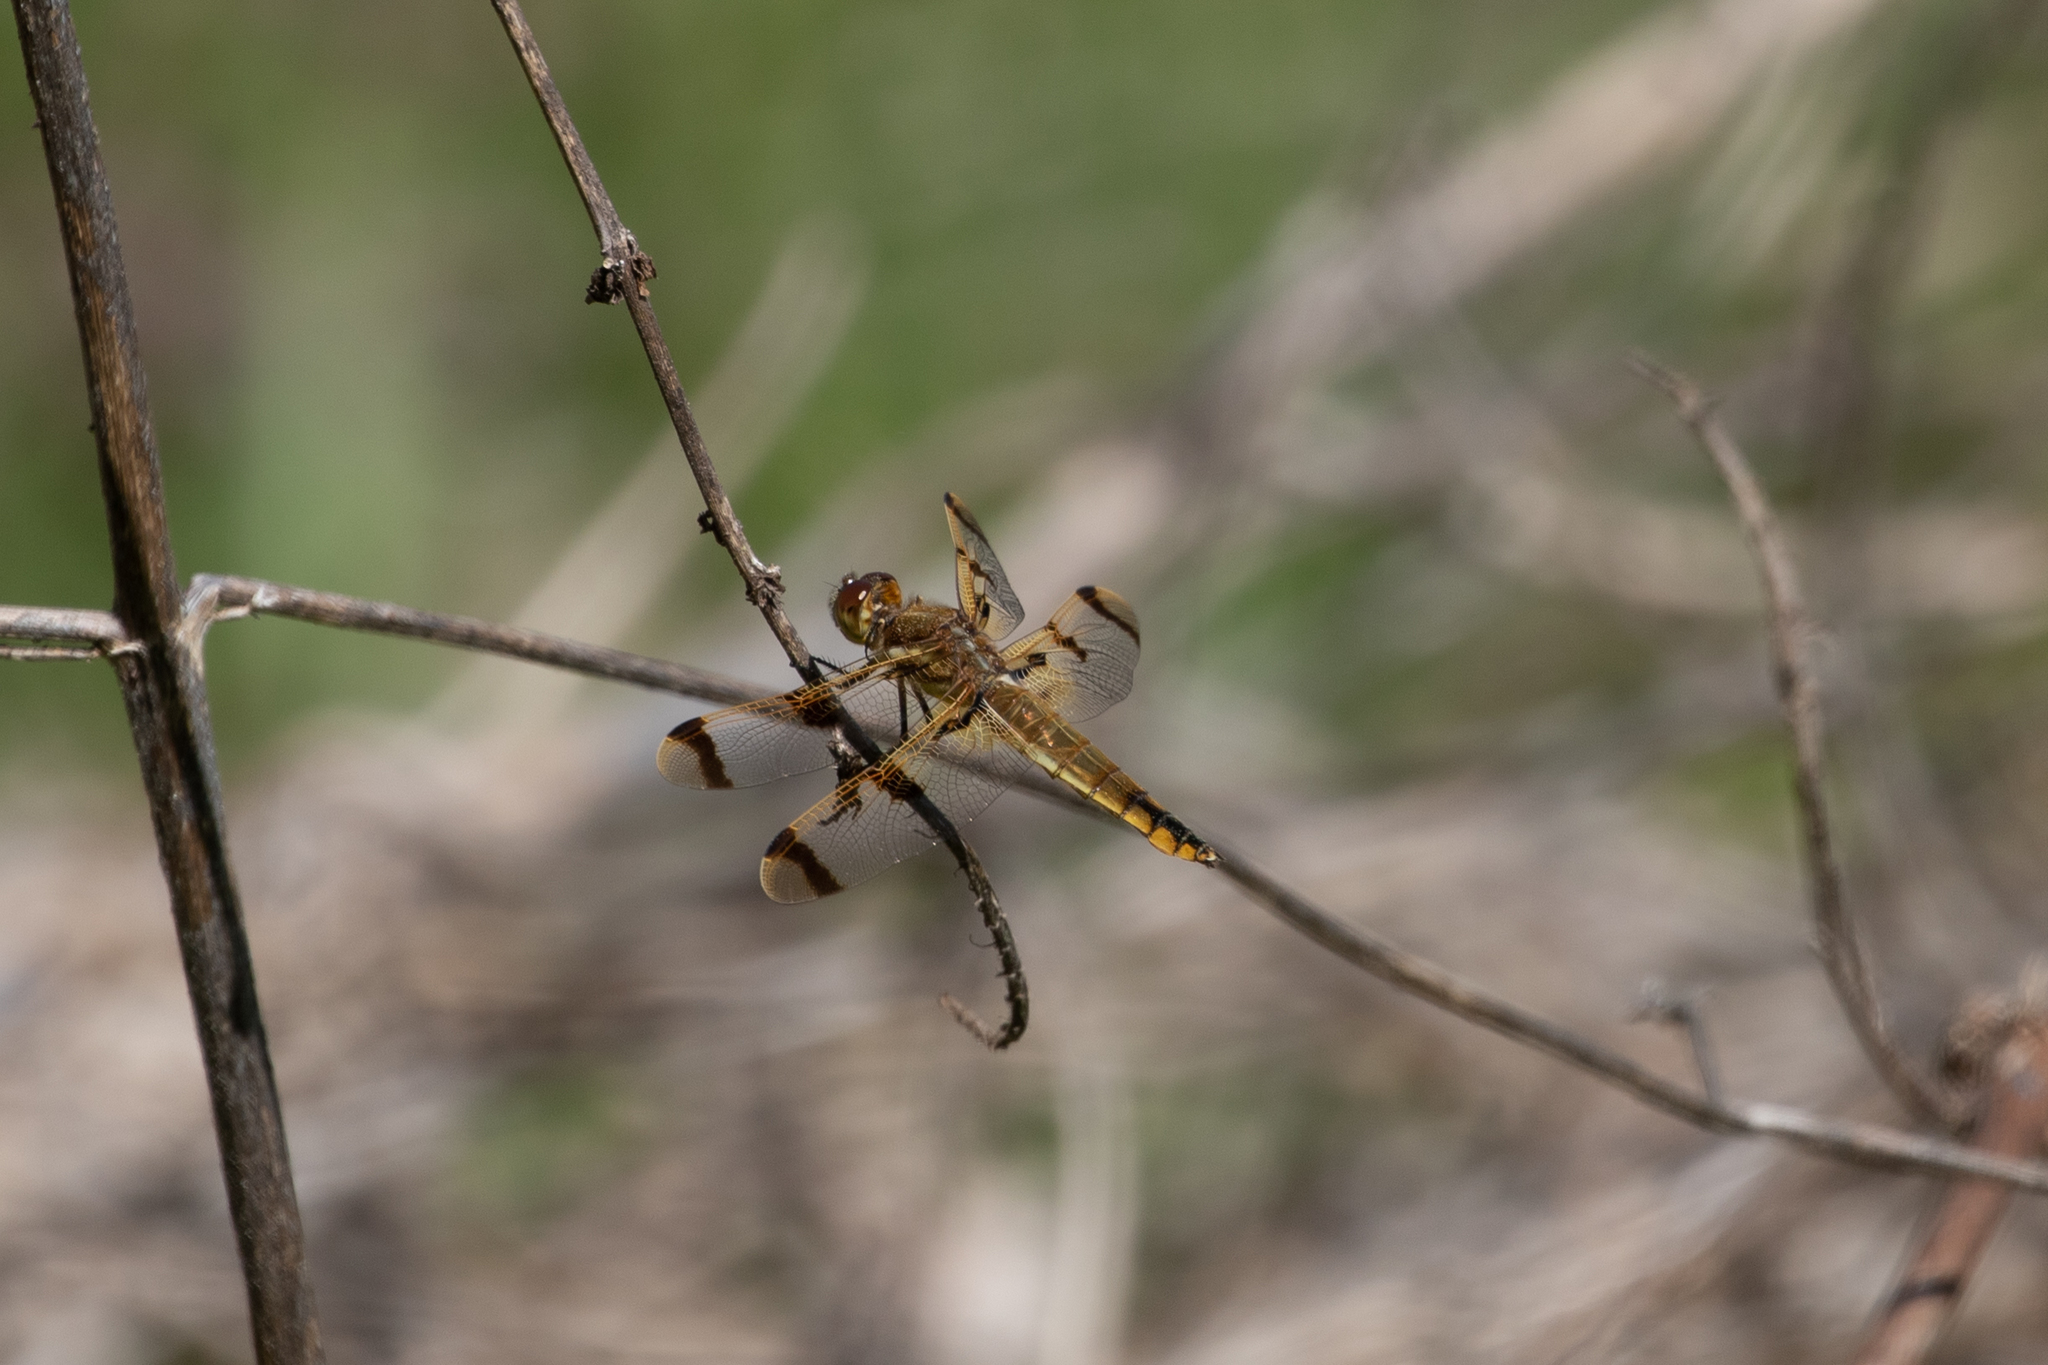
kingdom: Animalia
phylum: Arthropoda
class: Insecta
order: Odonata
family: Libellulidae
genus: Libellula
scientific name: Libellula semifasciata
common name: Painted skimmer
